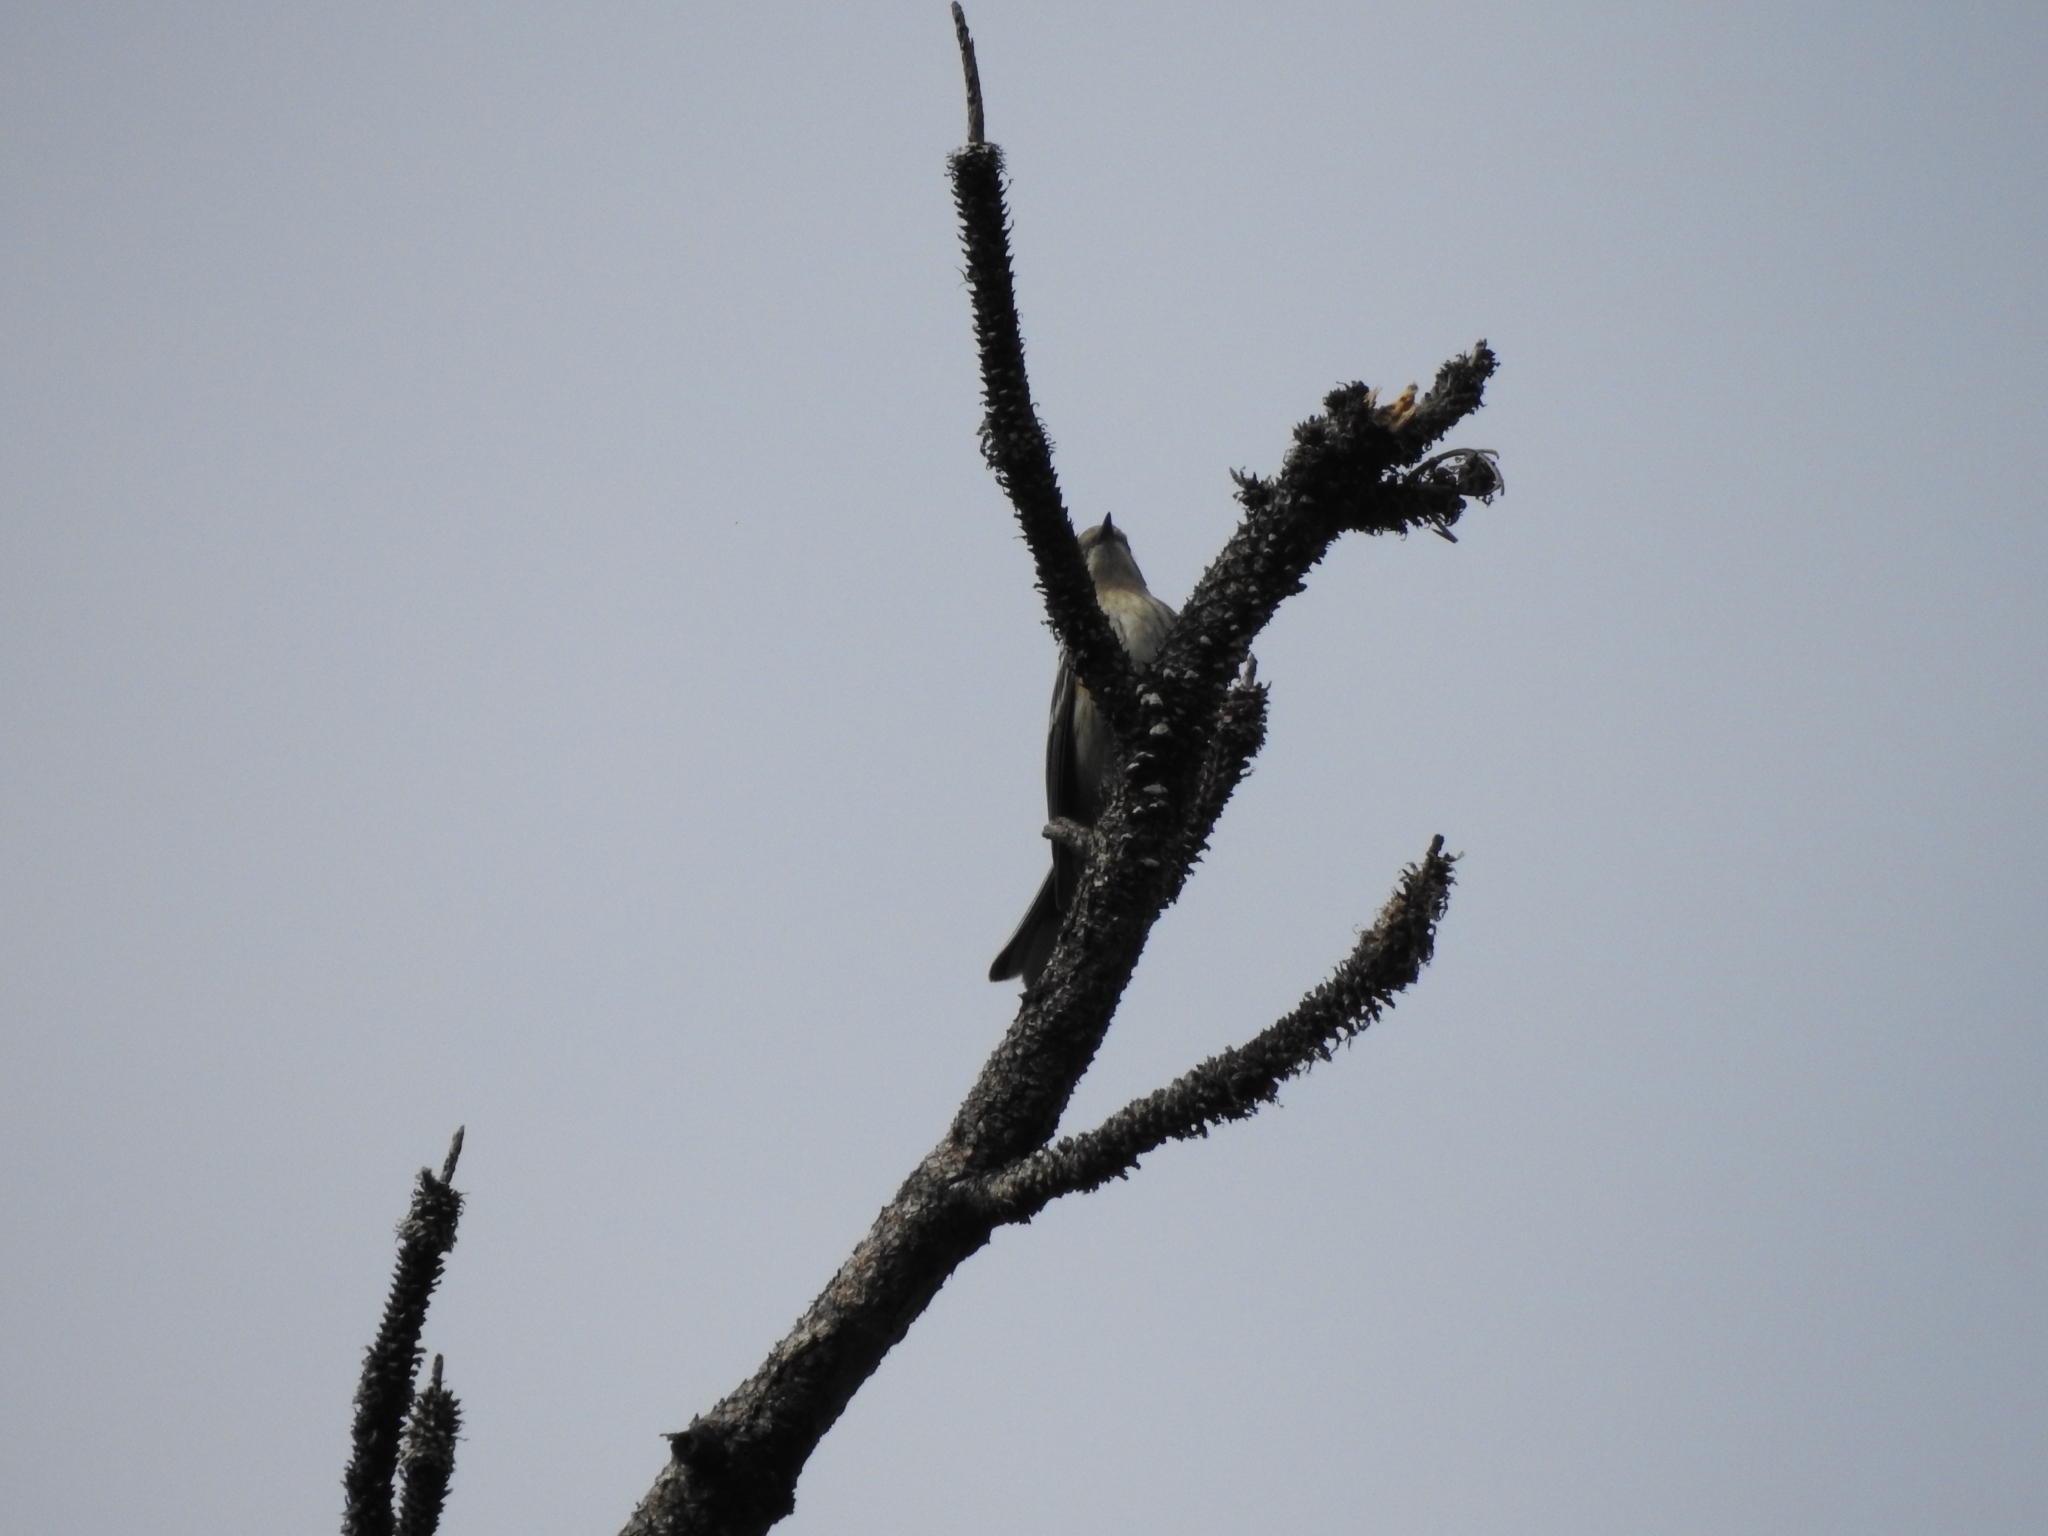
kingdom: Animalia
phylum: Chordata
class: Aves
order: Passeriformes
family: Parulidae
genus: Setophaga
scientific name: Setophaga coronata
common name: Myrtle warbler
